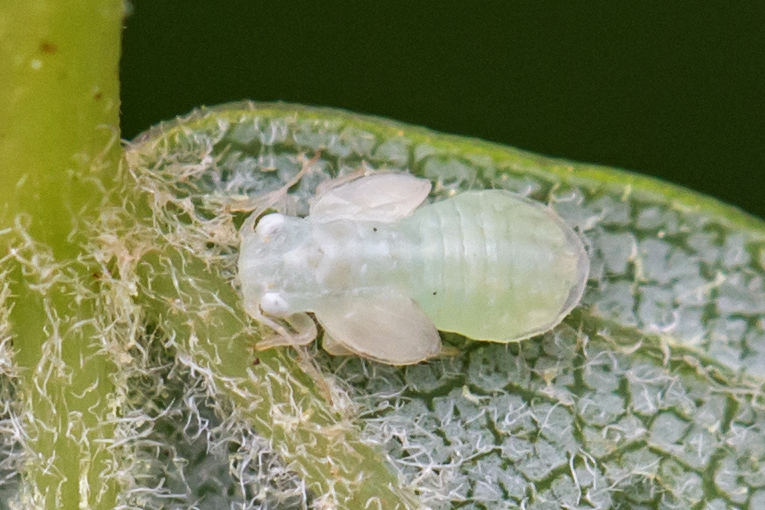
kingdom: Animalia
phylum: Arthropoda
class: Insecta
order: Hemiptera
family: Psyllidae
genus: Cacopsylla
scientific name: Cacopsylla annulata
